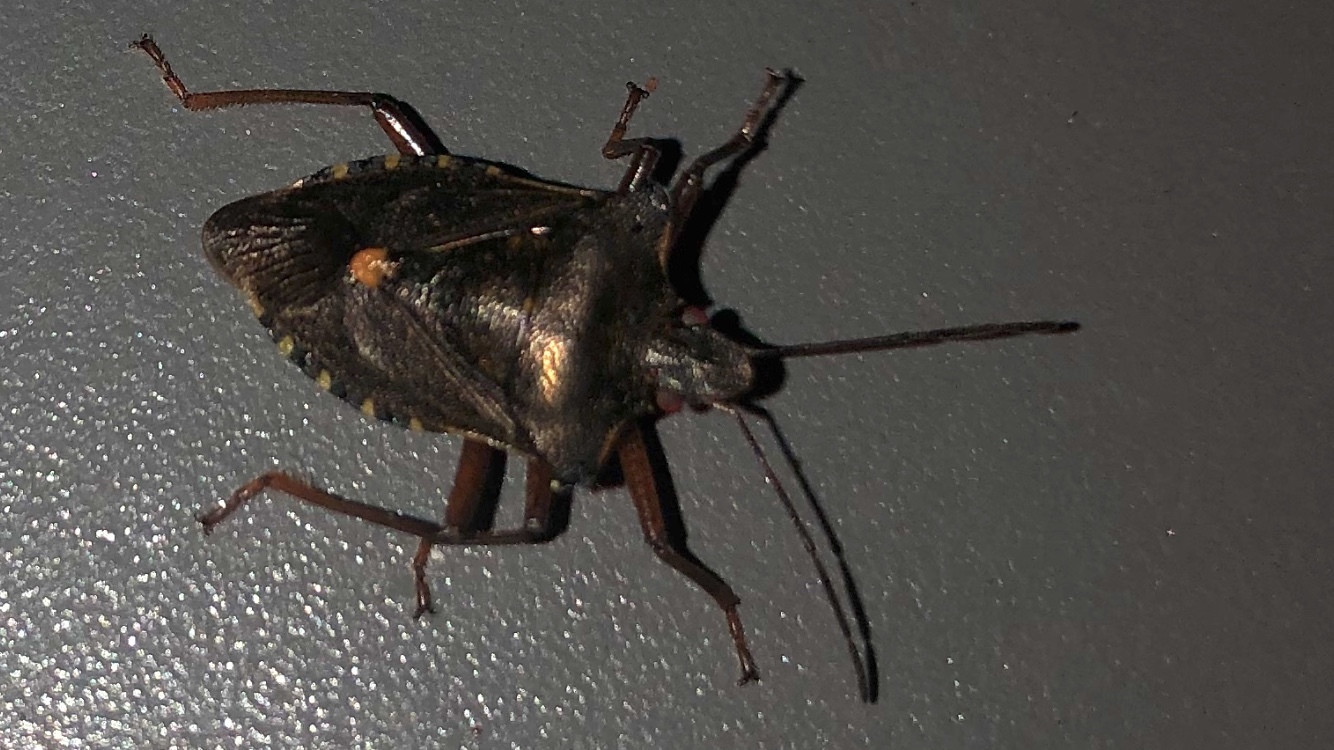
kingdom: Animalia
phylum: Arthropoda
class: Insecta
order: Hemiptera
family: Pentatomidae
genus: Pentatoma
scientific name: Pentatoma rufipes
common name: Forest bug
